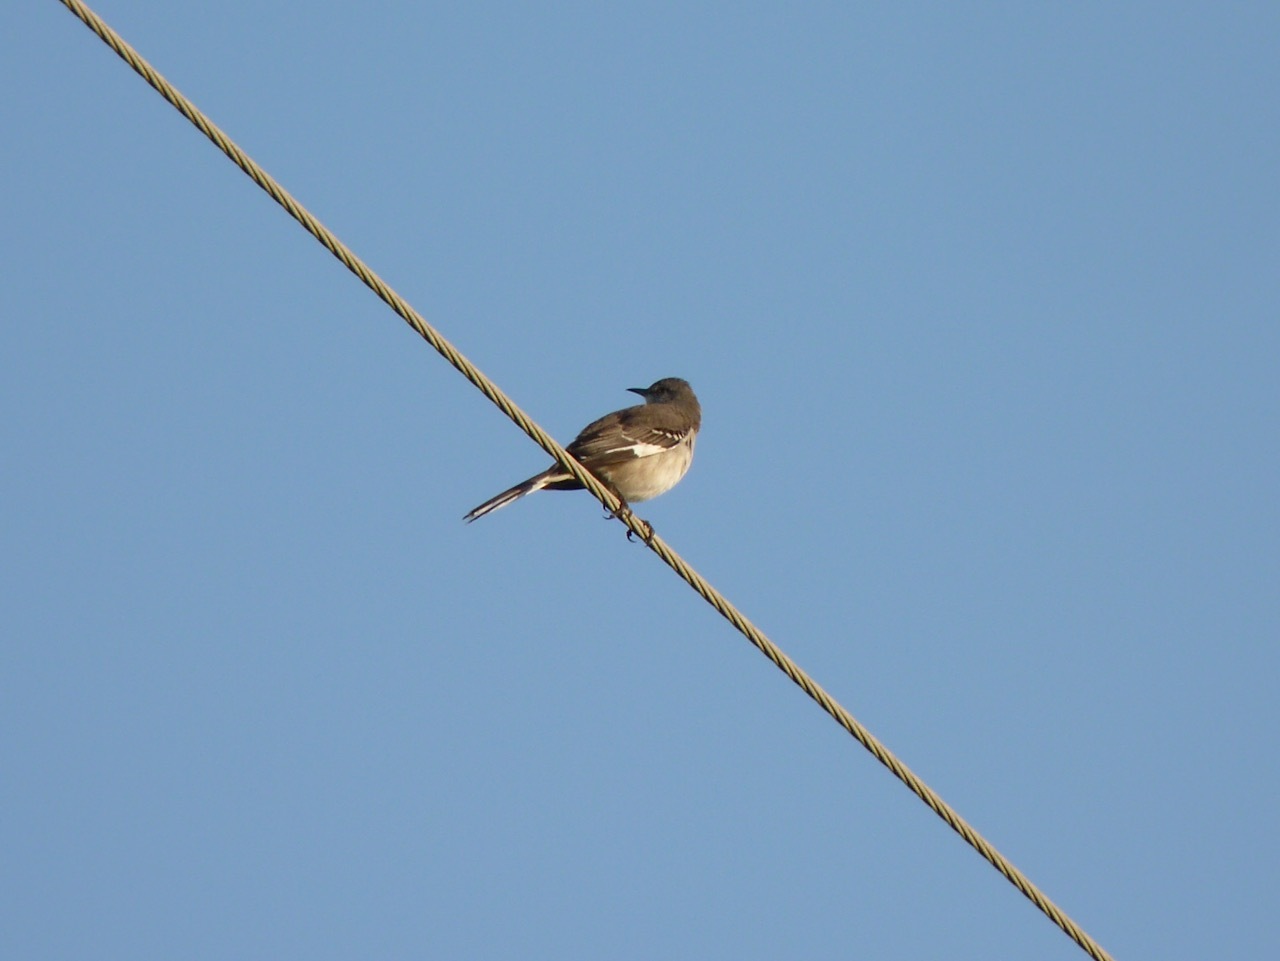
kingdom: Animalia
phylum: Chordata
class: Aves
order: Passeriformes
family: Mimidae
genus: Mimus
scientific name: Mimus polyglottos
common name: Northern mockingbird
